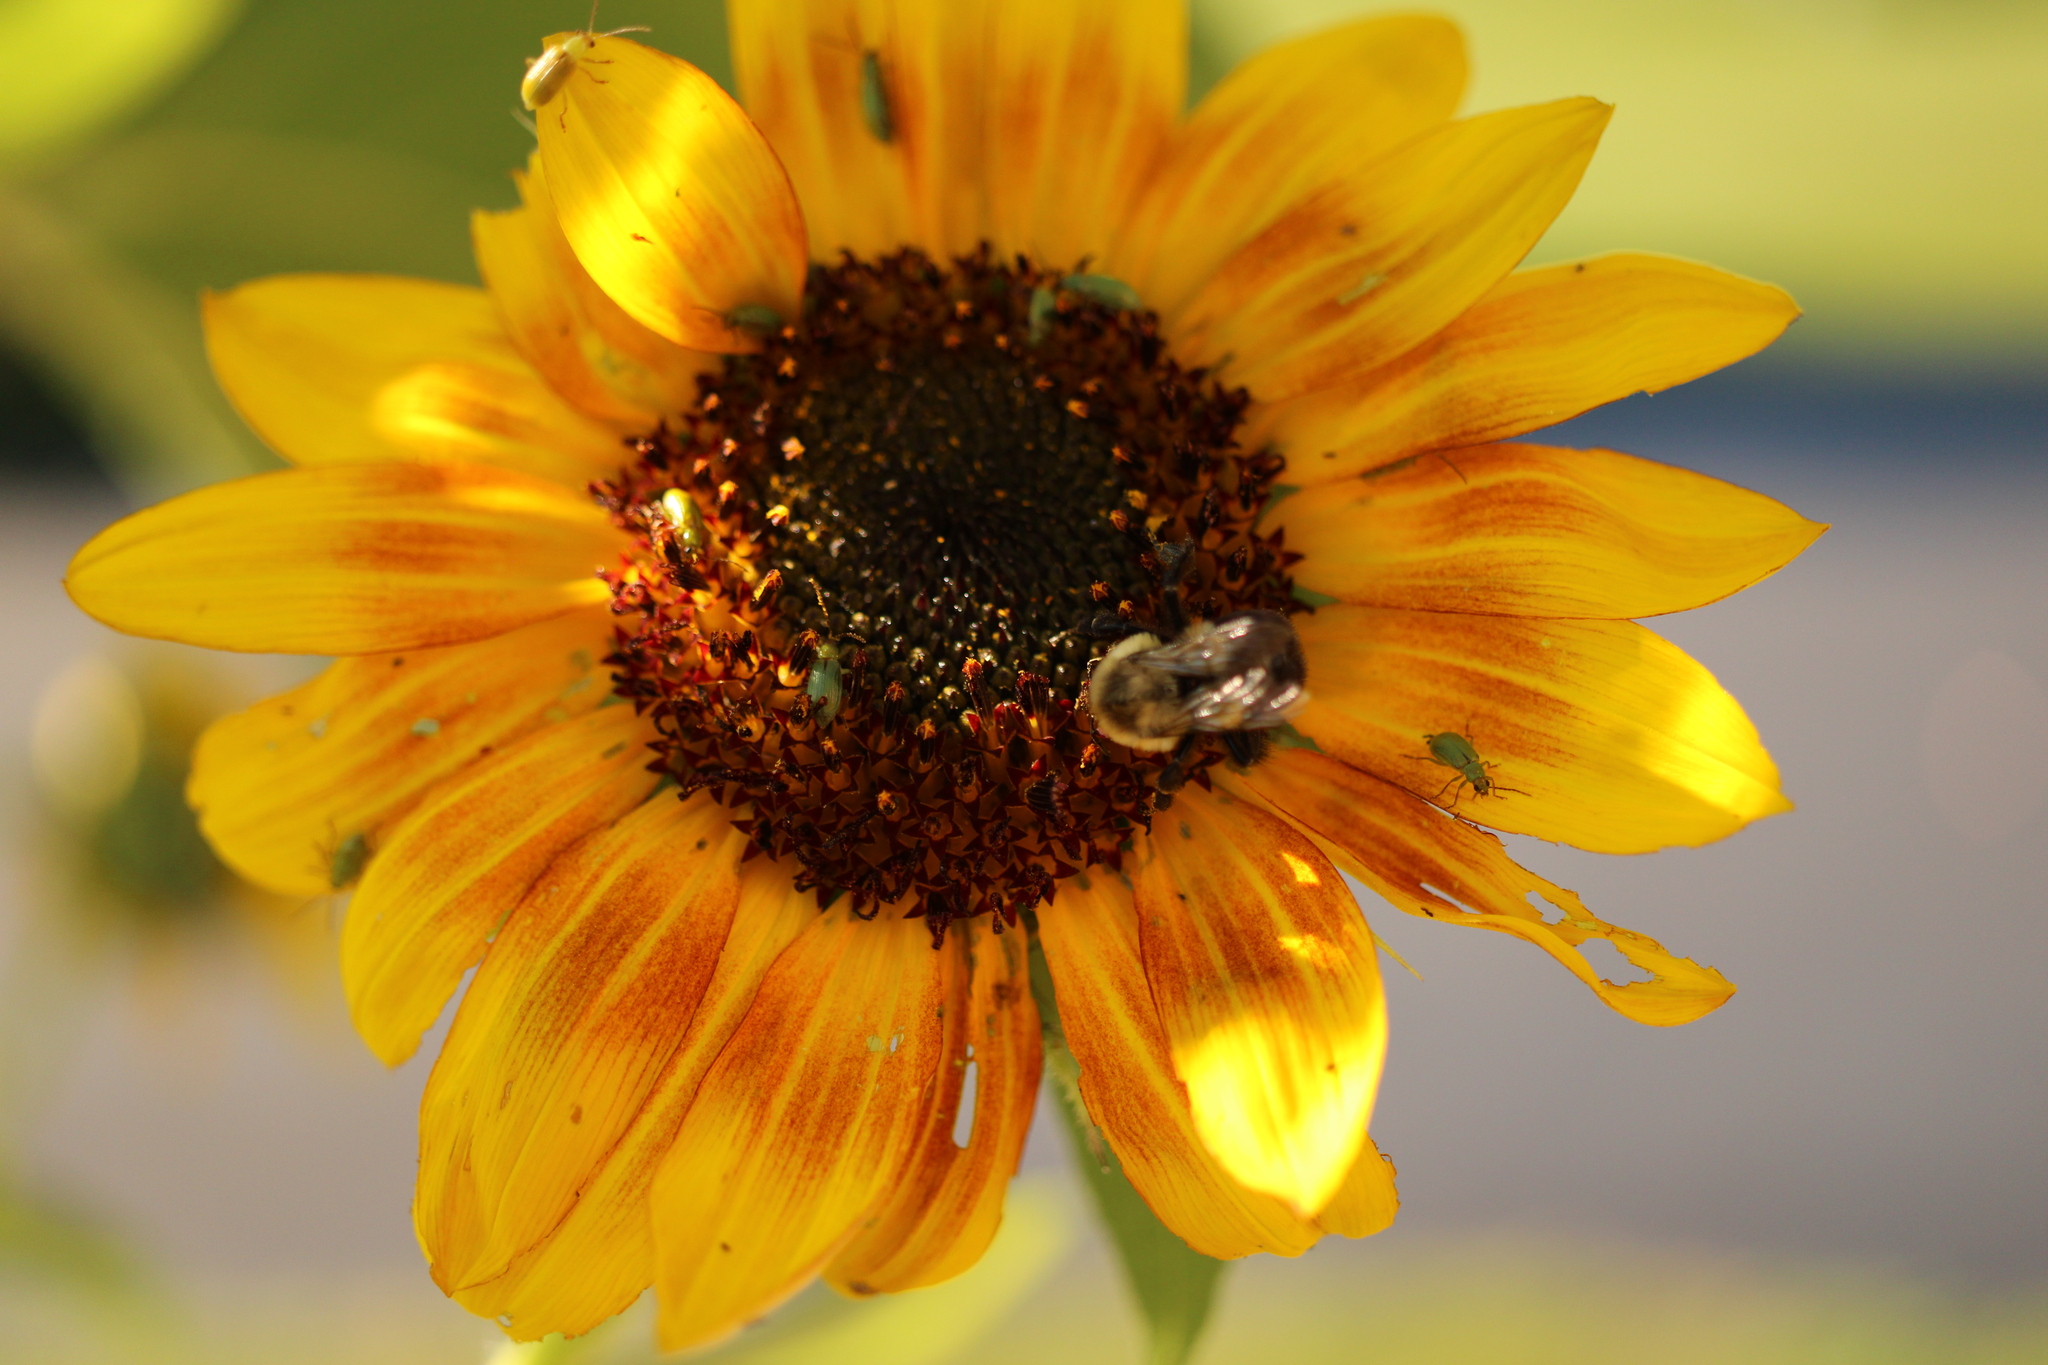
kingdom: Animalia
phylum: Arthropoda
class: Insecta
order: Coleoptera
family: Chrysomelidae
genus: Diabrotica
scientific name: Diabrotica barberi
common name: Northern corn rootworm
